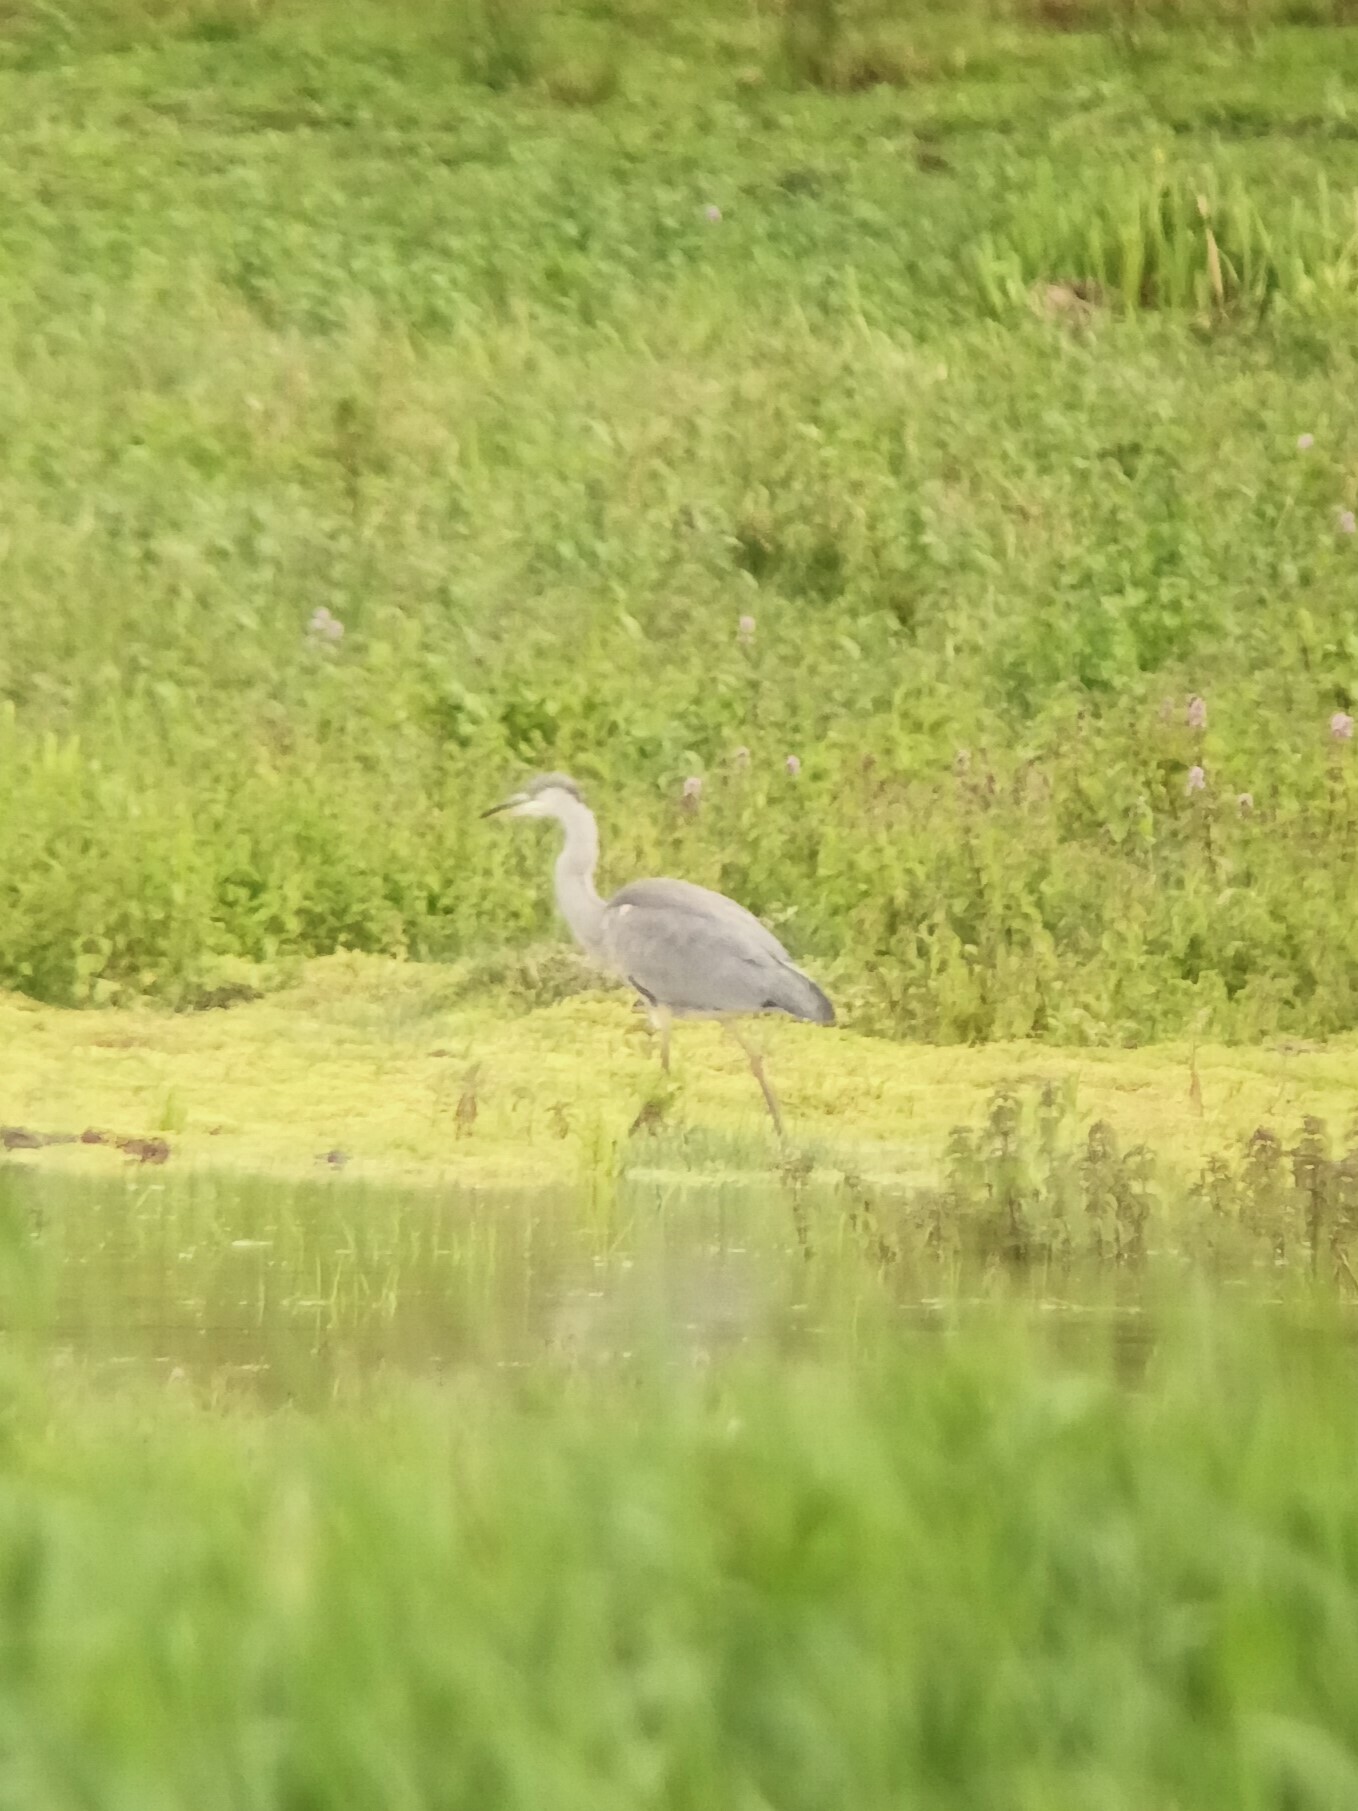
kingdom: Animalia
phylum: Chordata
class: Aves
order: Pelecaniformes
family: Ardeidae
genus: Ardea
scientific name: Ardea cinerea
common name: Grey heron
